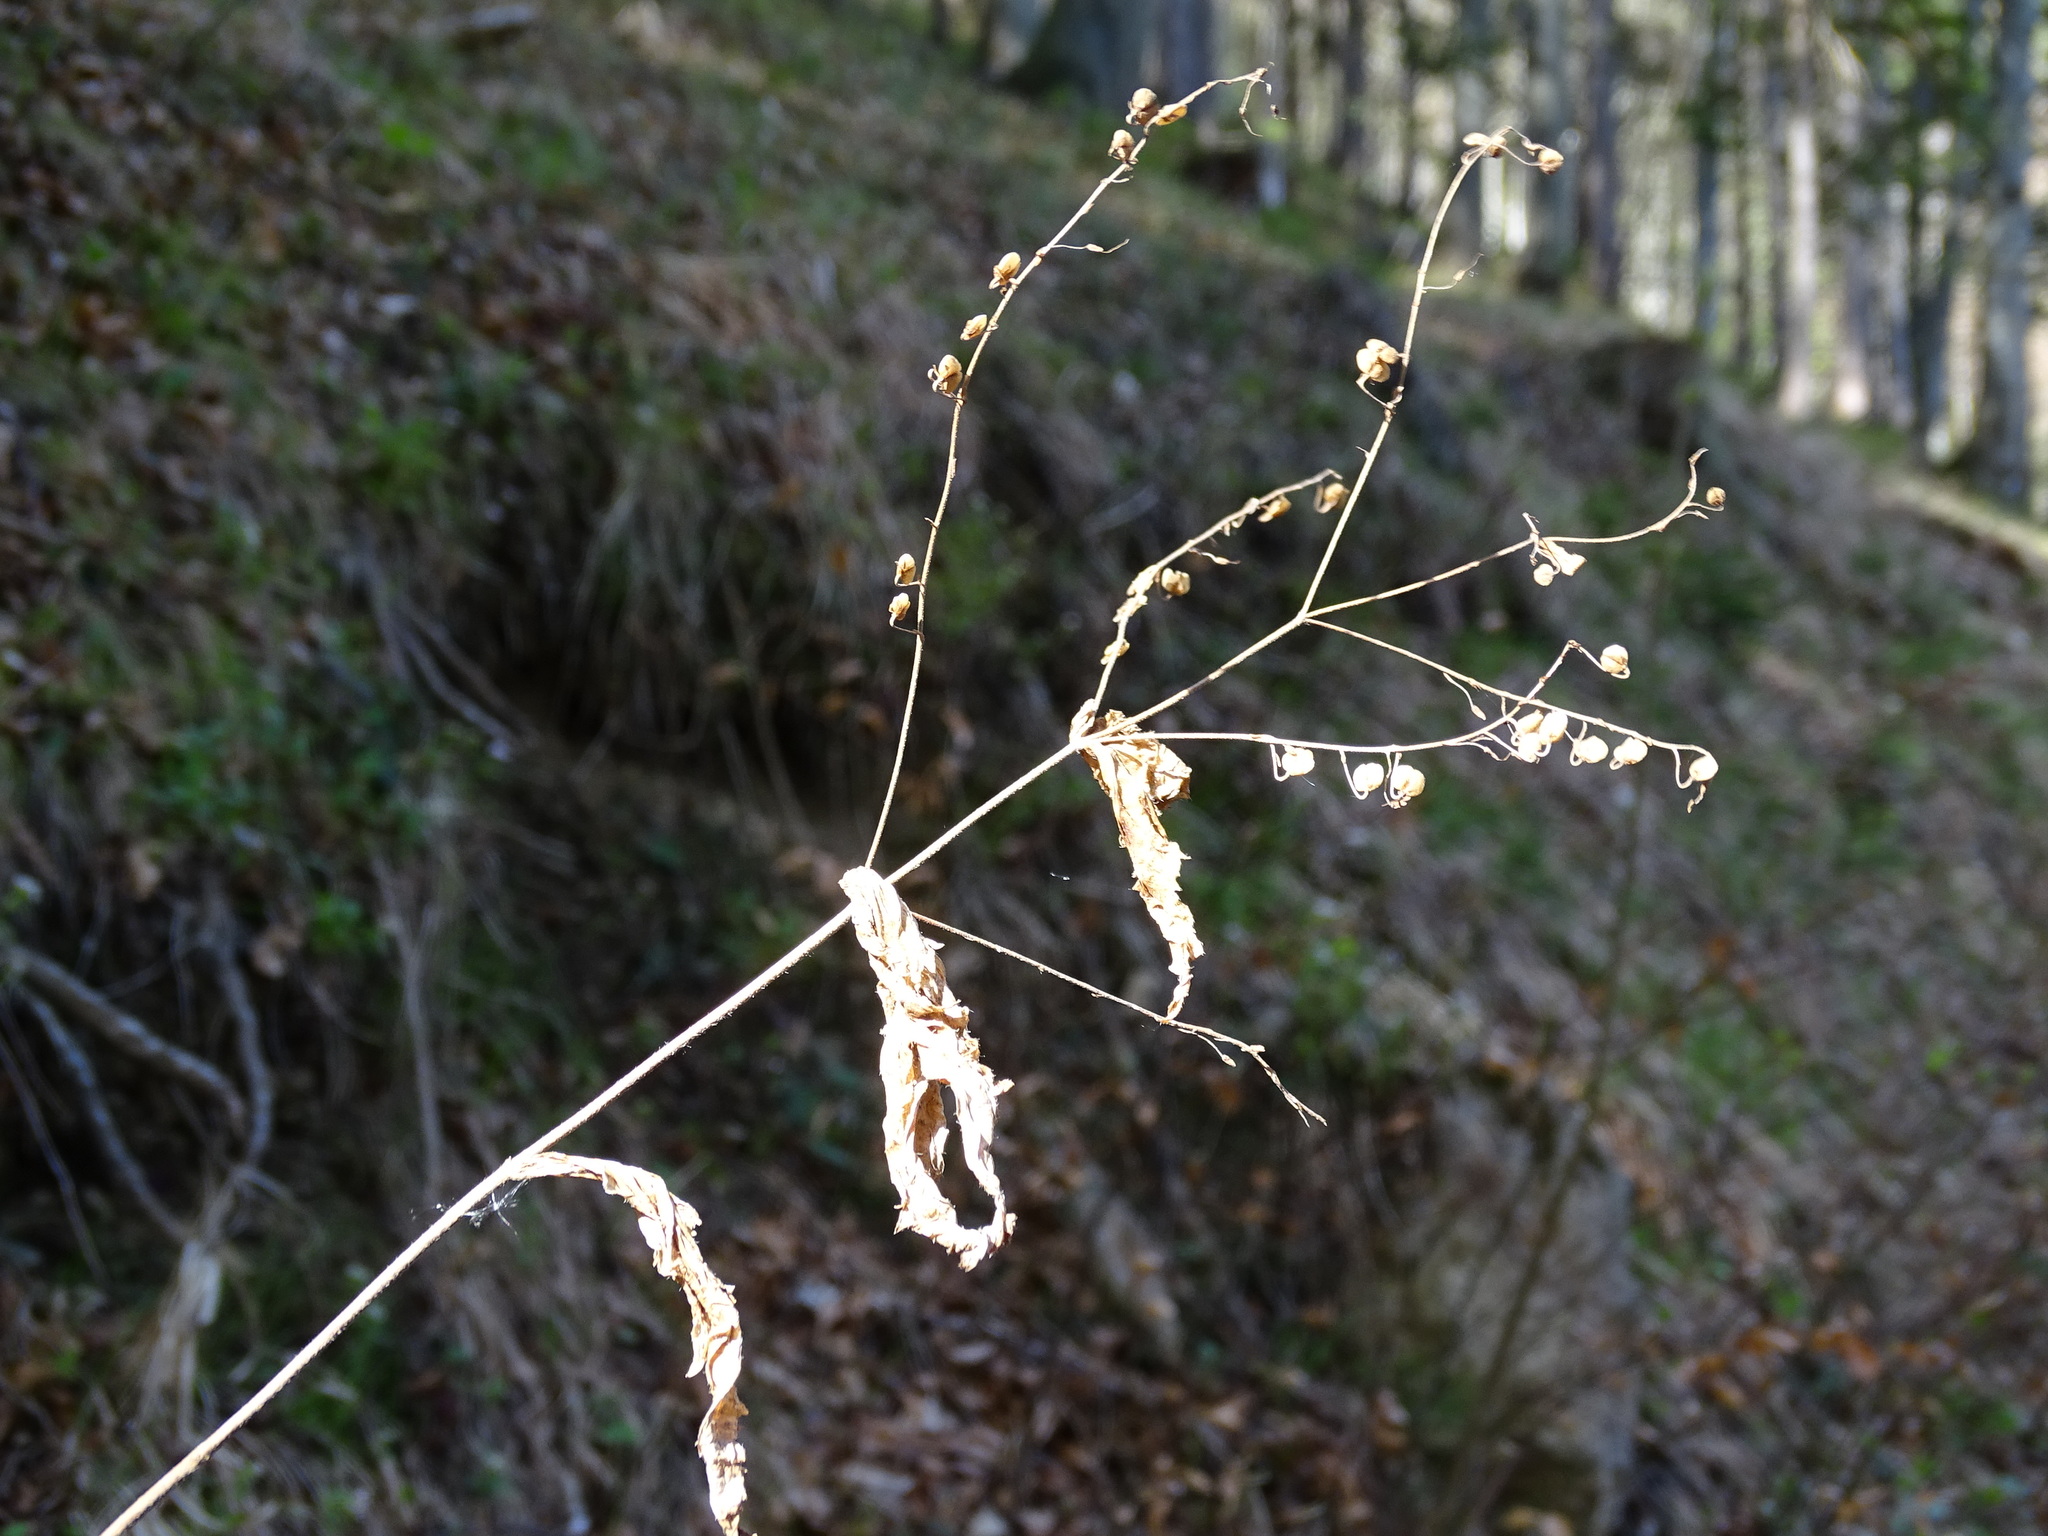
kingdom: Plantae
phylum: Tracheophyta
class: Magnoliopsida
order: Lamiales
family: Plantaginaceae
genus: Veronica
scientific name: Veronica urticifolia
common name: Nettle-leaf speedwell
